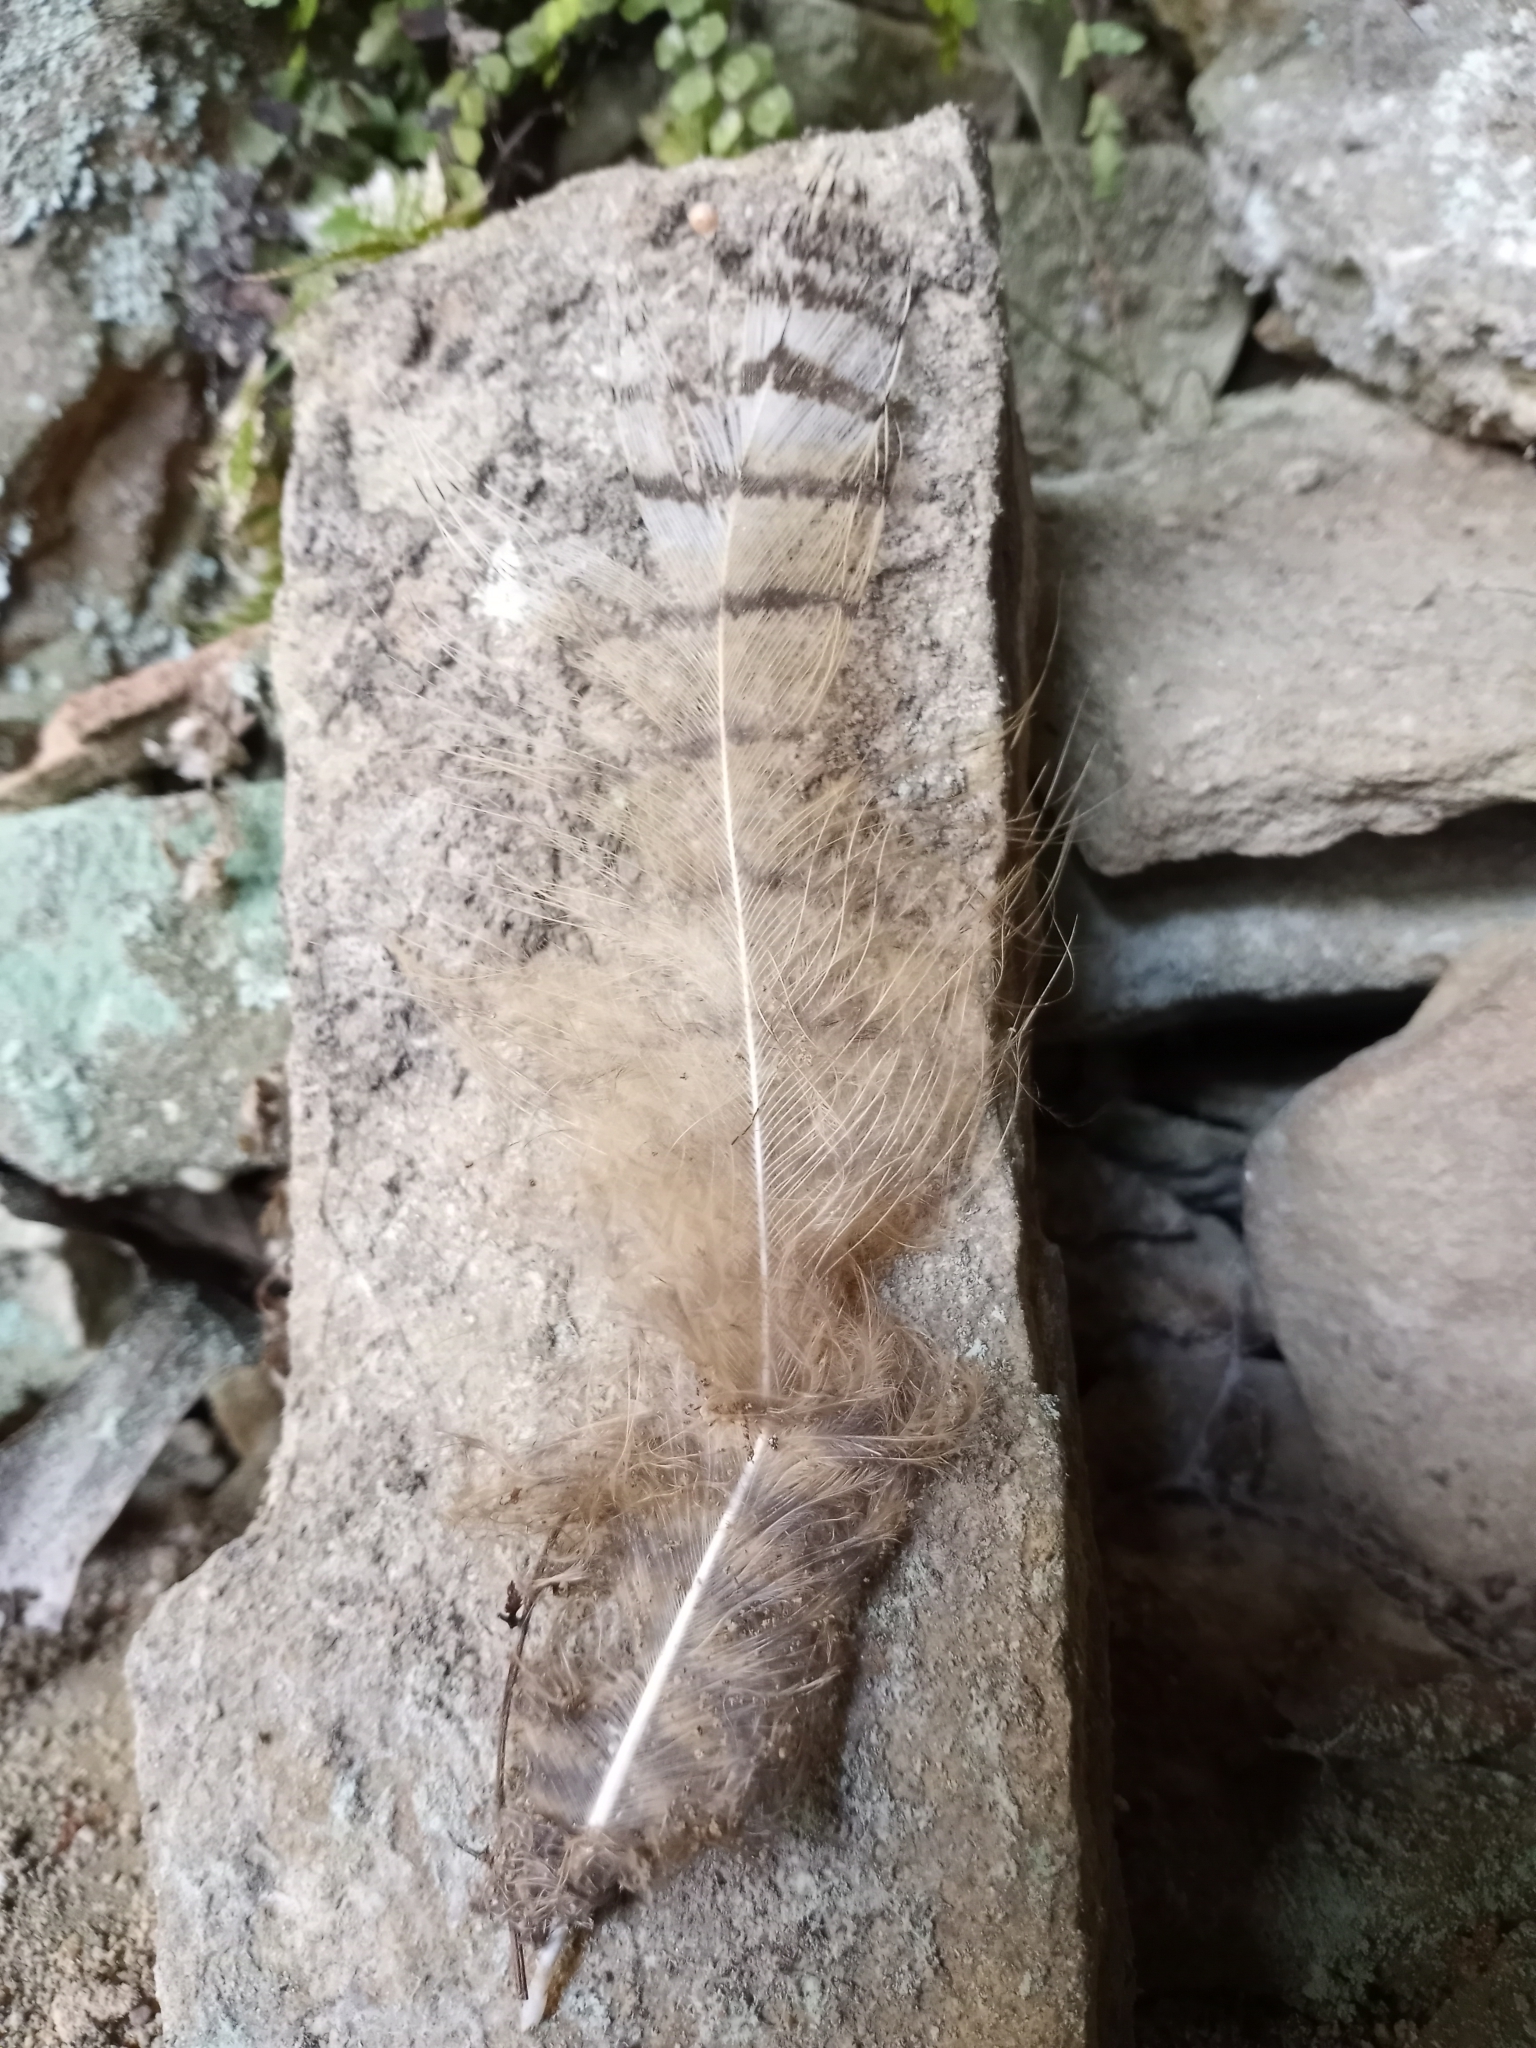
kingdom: Animalia
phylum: Chordata
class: Aves
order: Strigiformes
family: Strigidae
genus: Bubo
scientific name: Bubo virginianus
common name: Great horned owl
